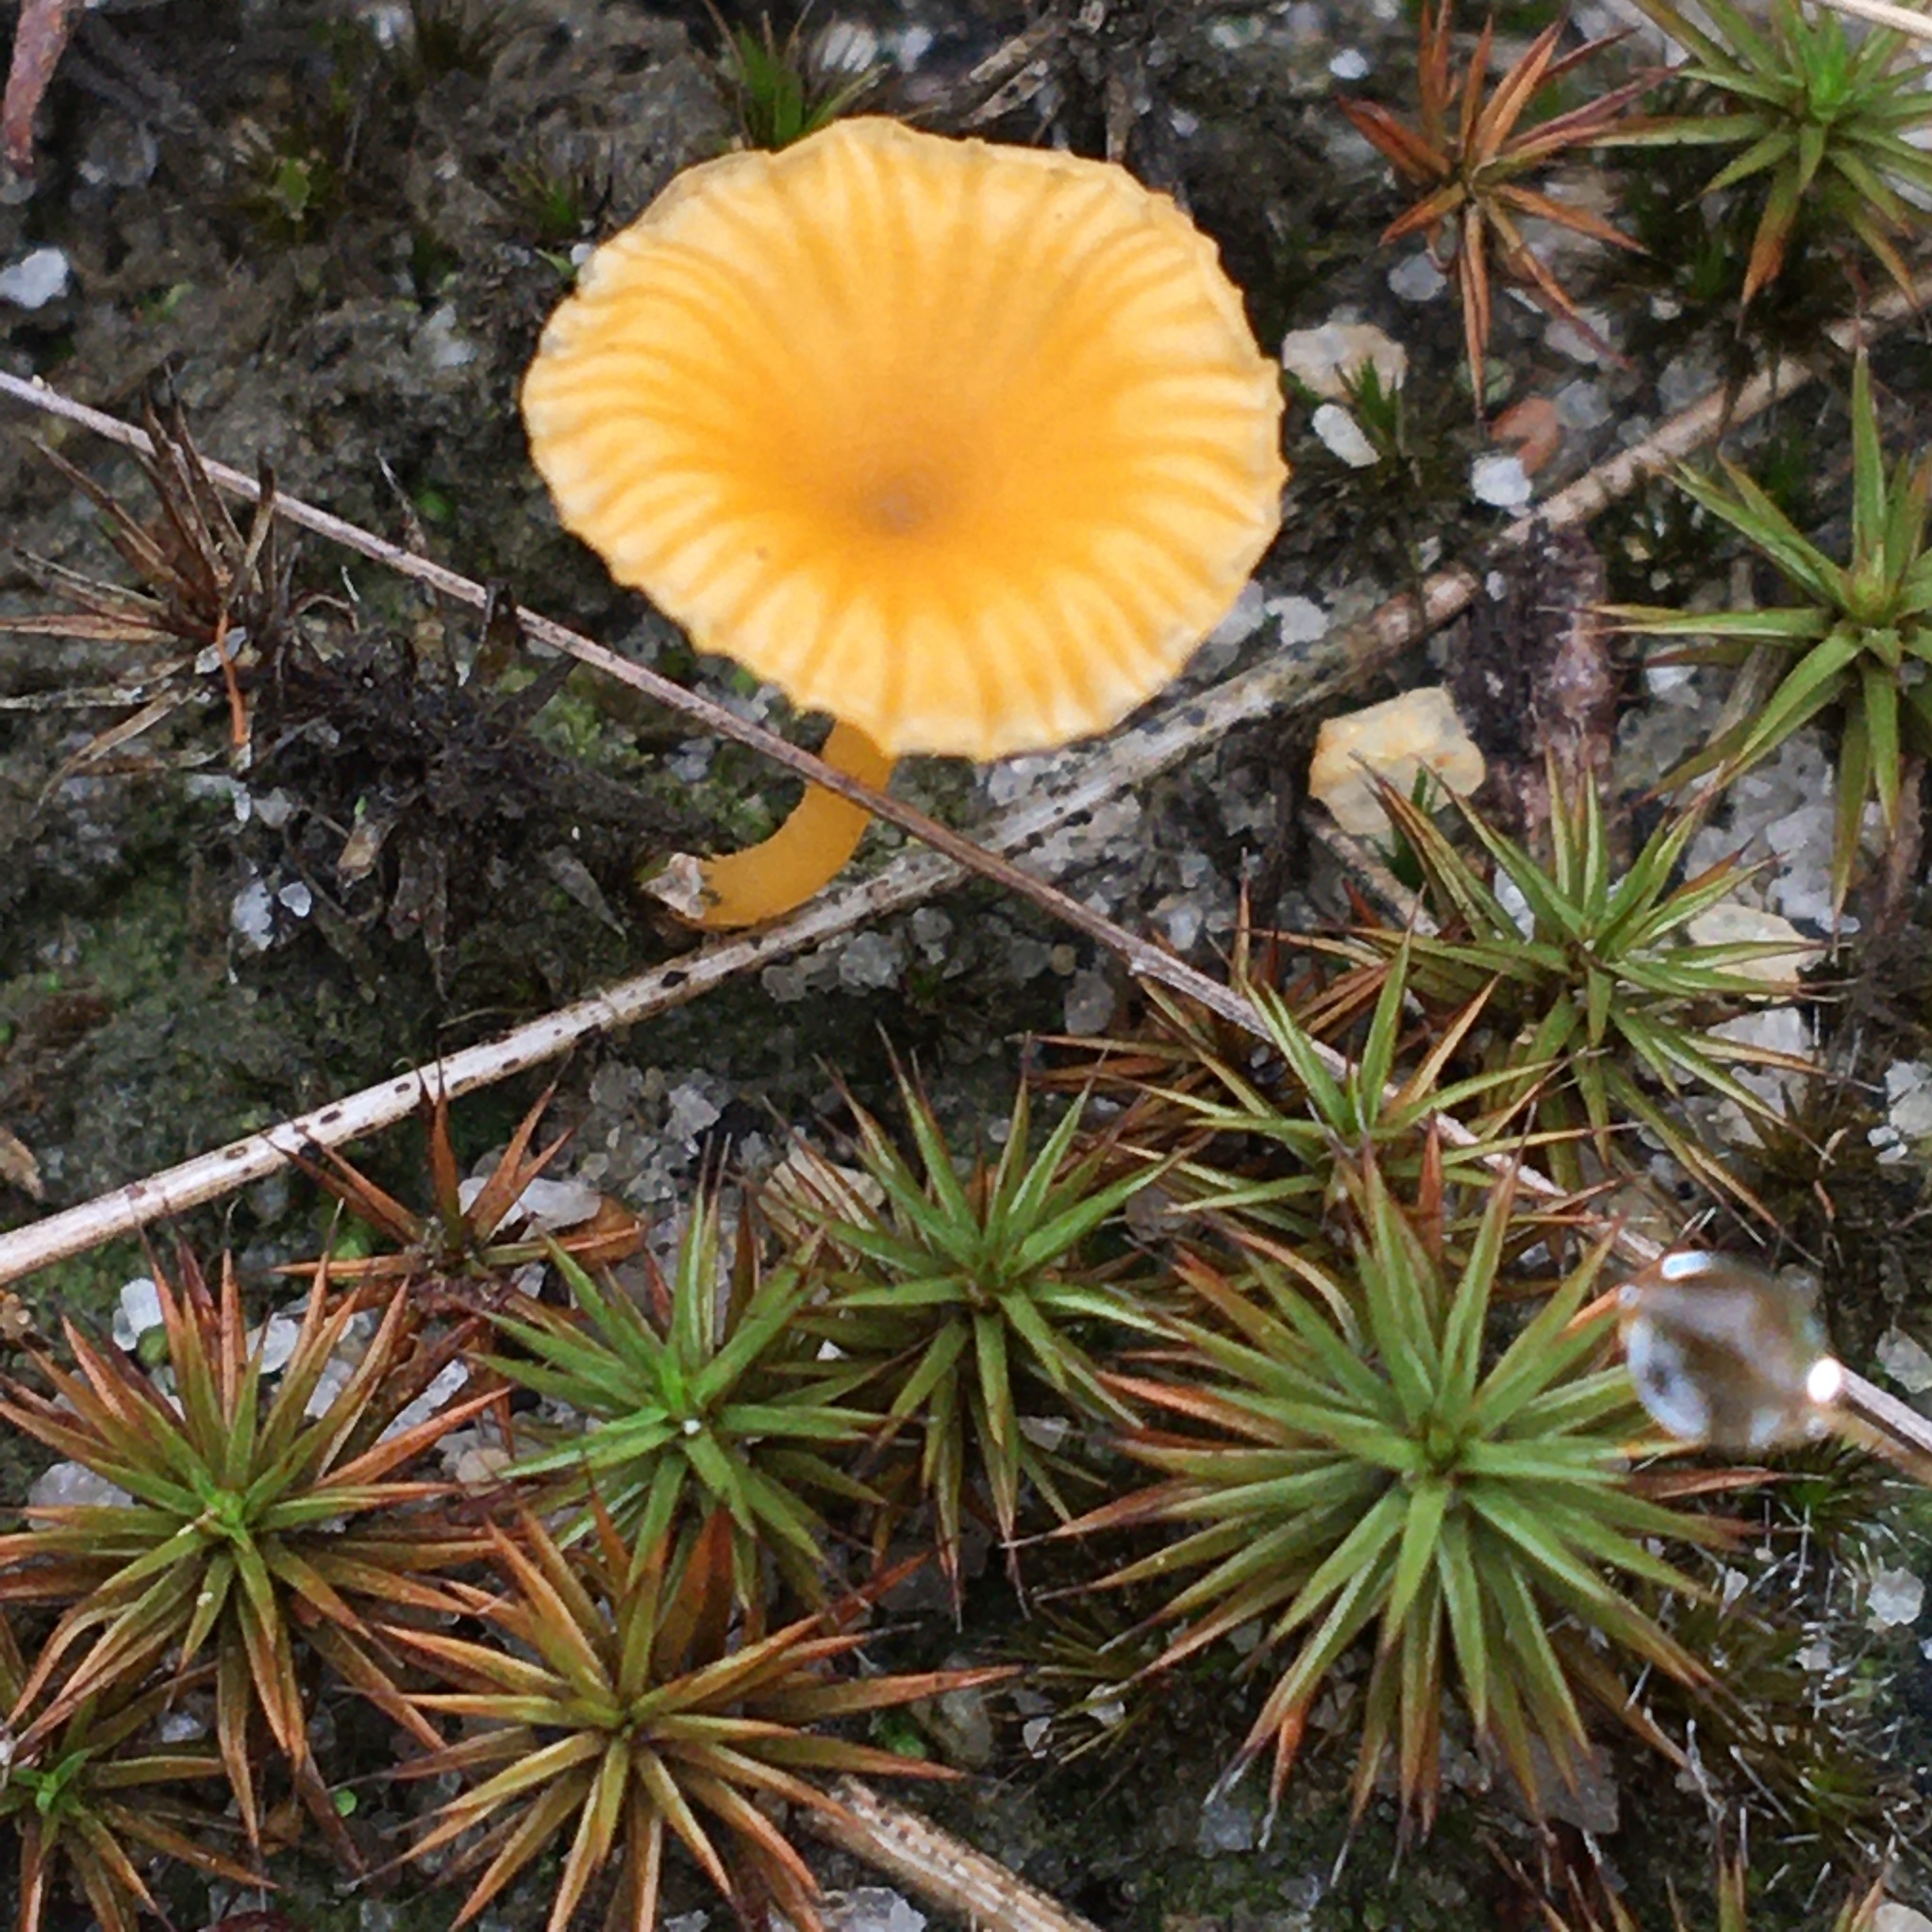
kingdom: Fungi
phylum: Basidiomycota
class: Agaricomycetes
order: Agaricales
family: Hygrophoraceae
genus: Lichenomphalia
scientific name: Lichenomphalia chromacea
